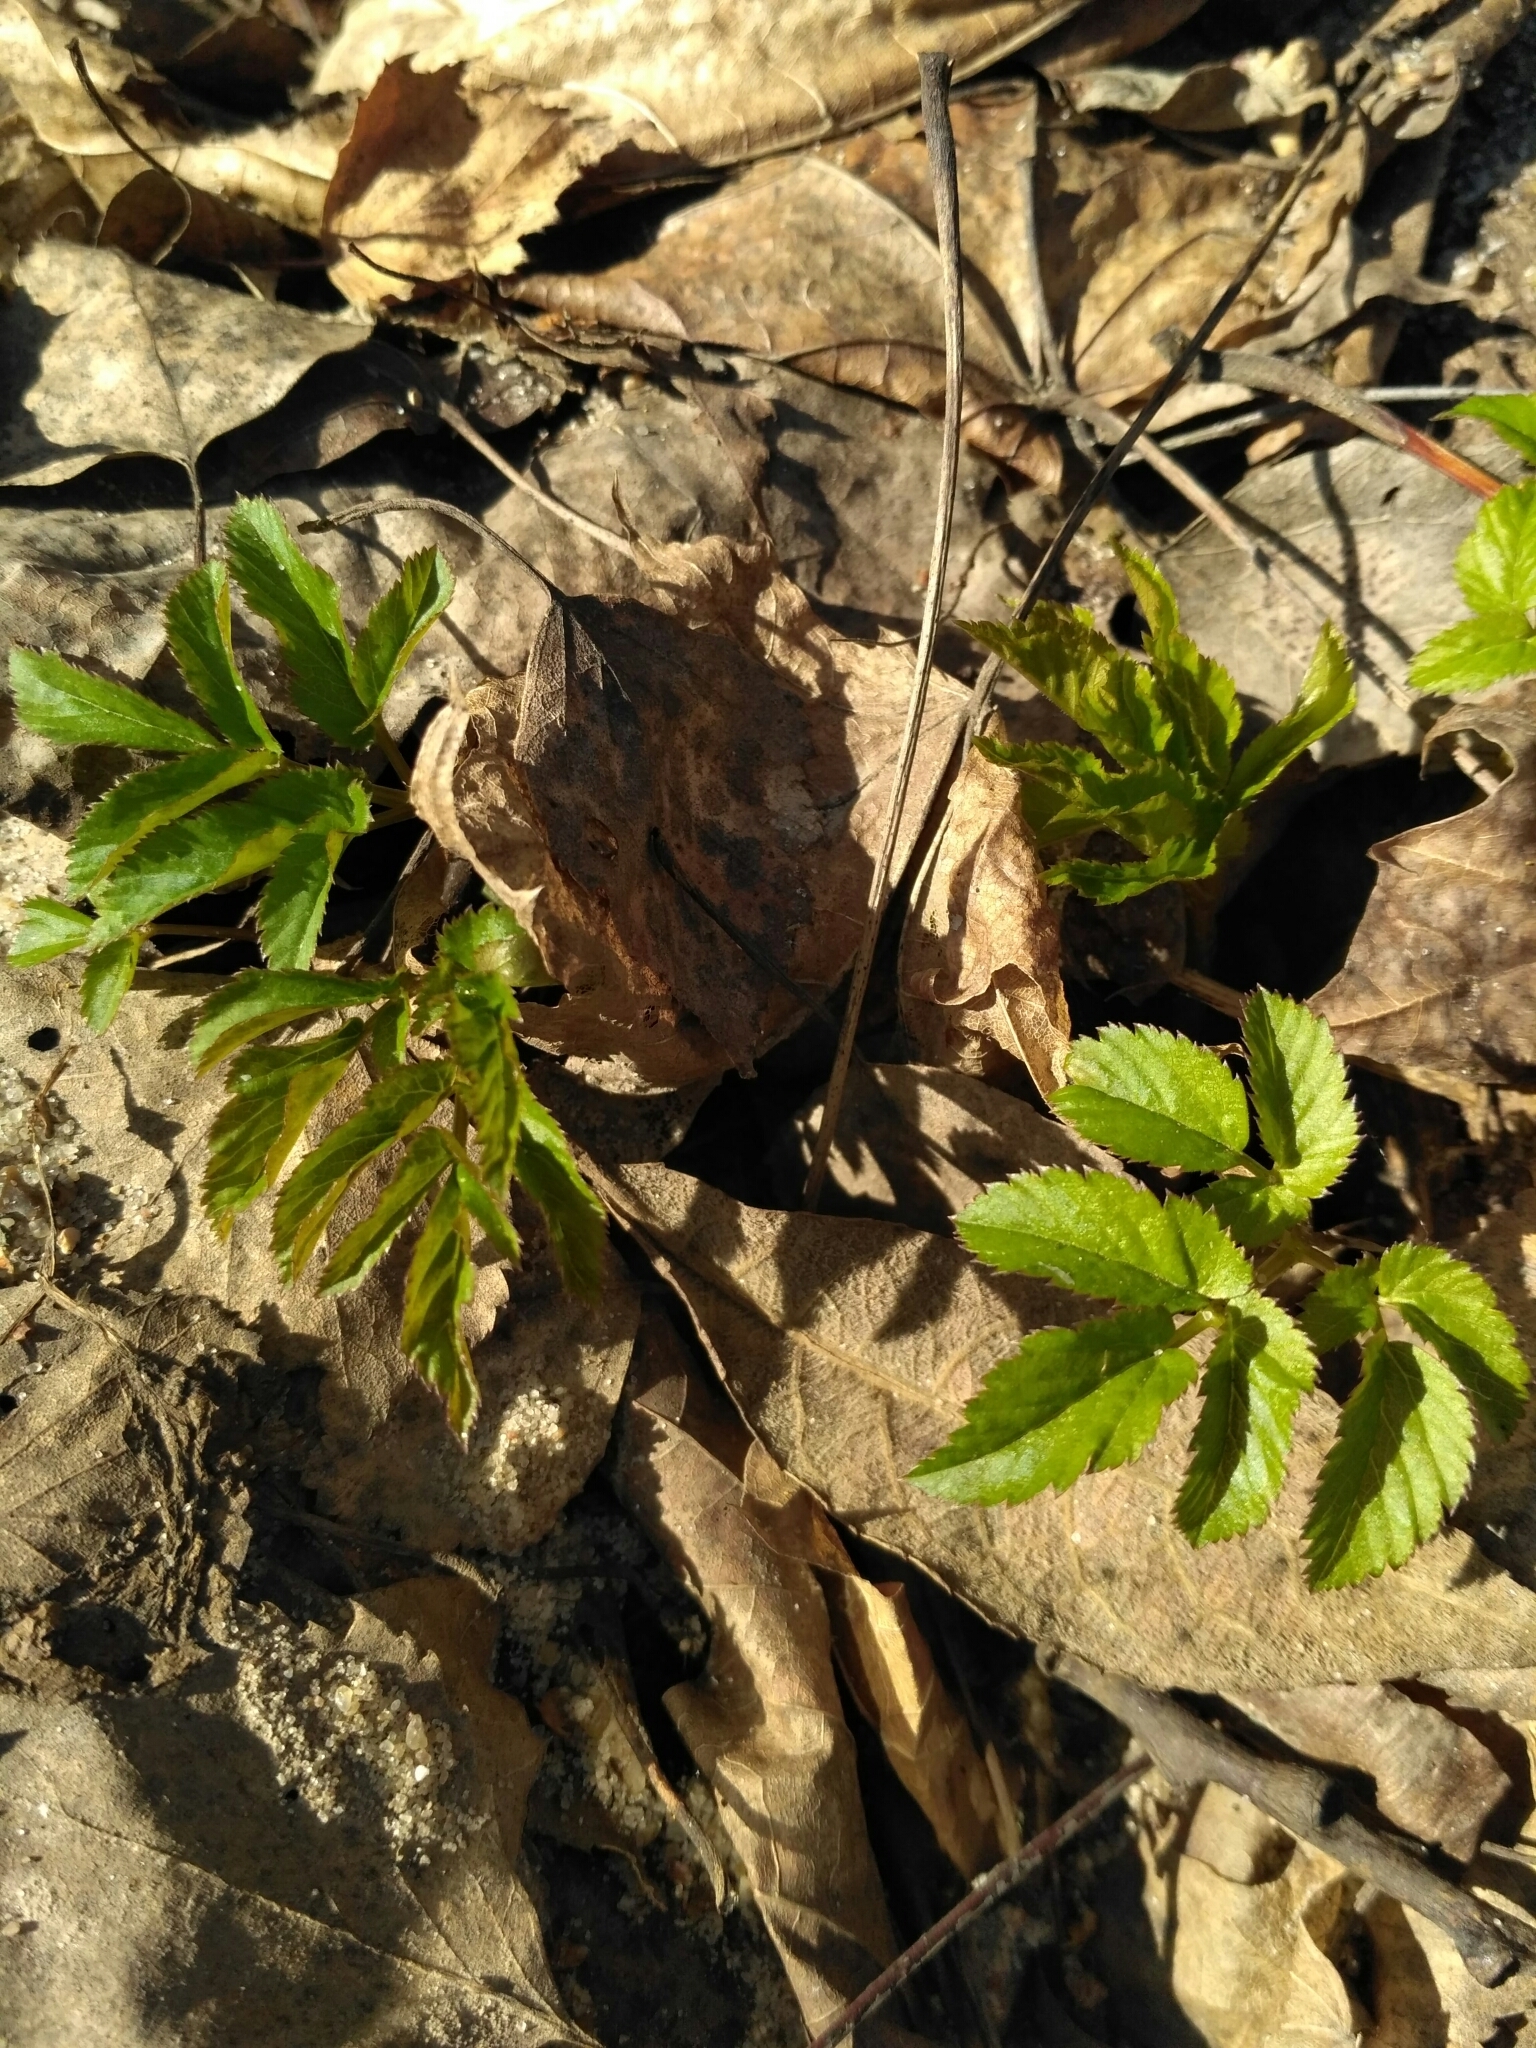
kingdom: Plantae
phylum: Tracheophyta
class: Magnoliopsida
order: Apiales
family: Apiaceae
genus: Aegopodium
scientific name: Aegopodium podagraria
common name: Ground-elder
